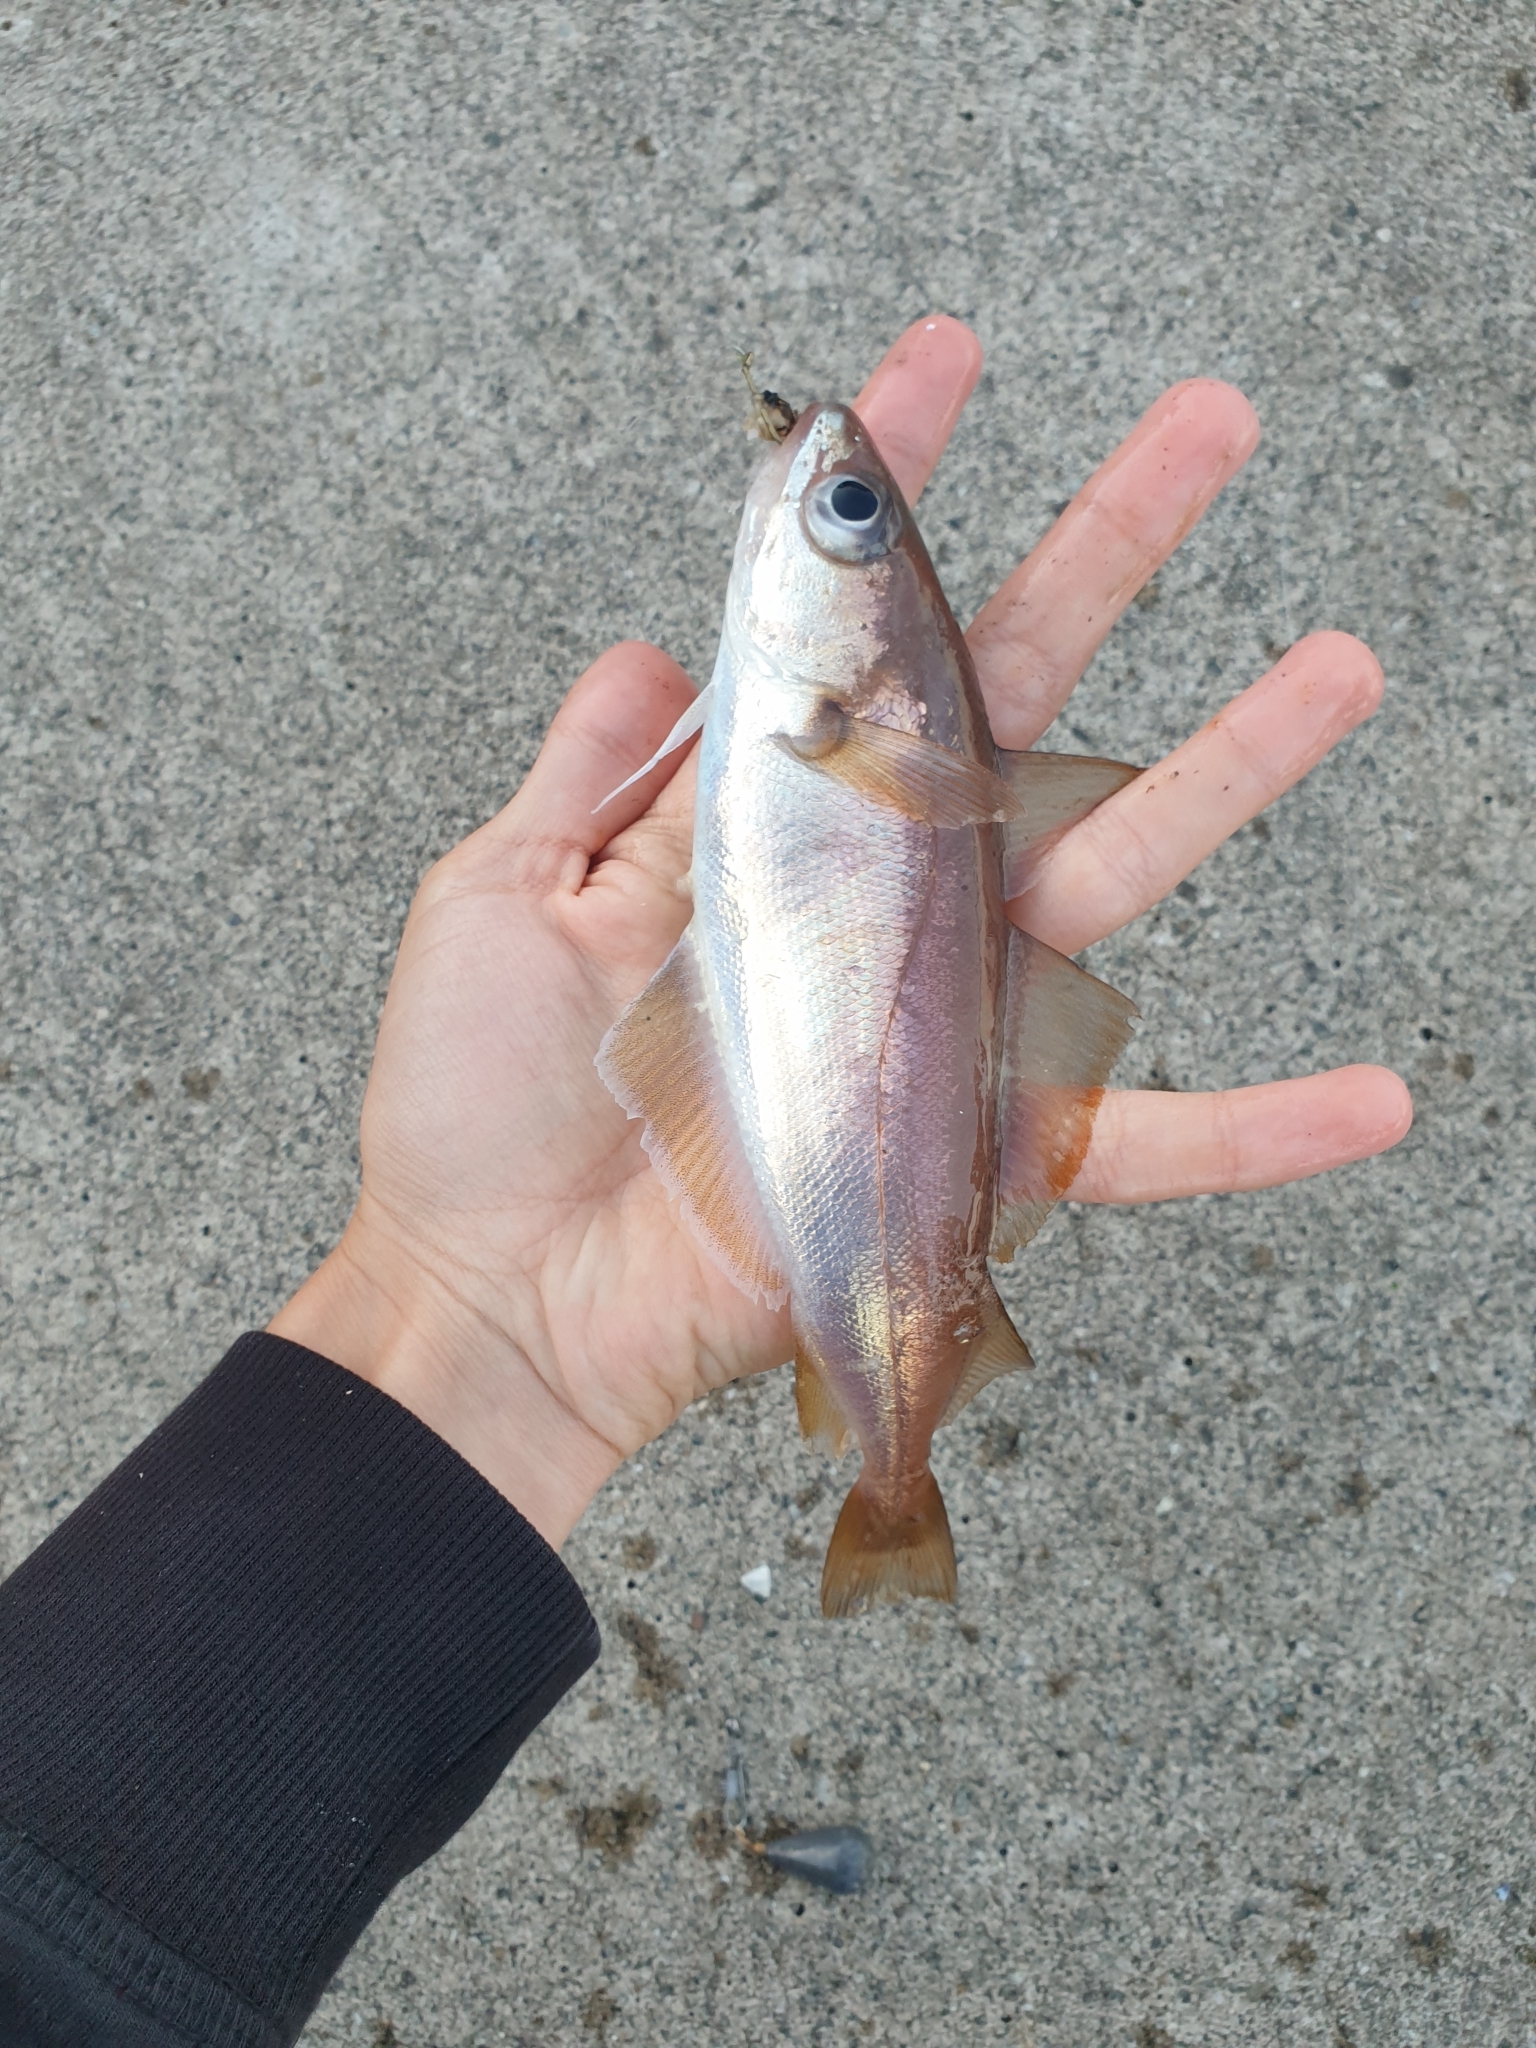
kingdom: Animalia
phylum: Chordata
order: Gadiformes
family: Gadidae
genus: Trisopterus
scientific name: Trisopterus minutus
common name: Poor cod
